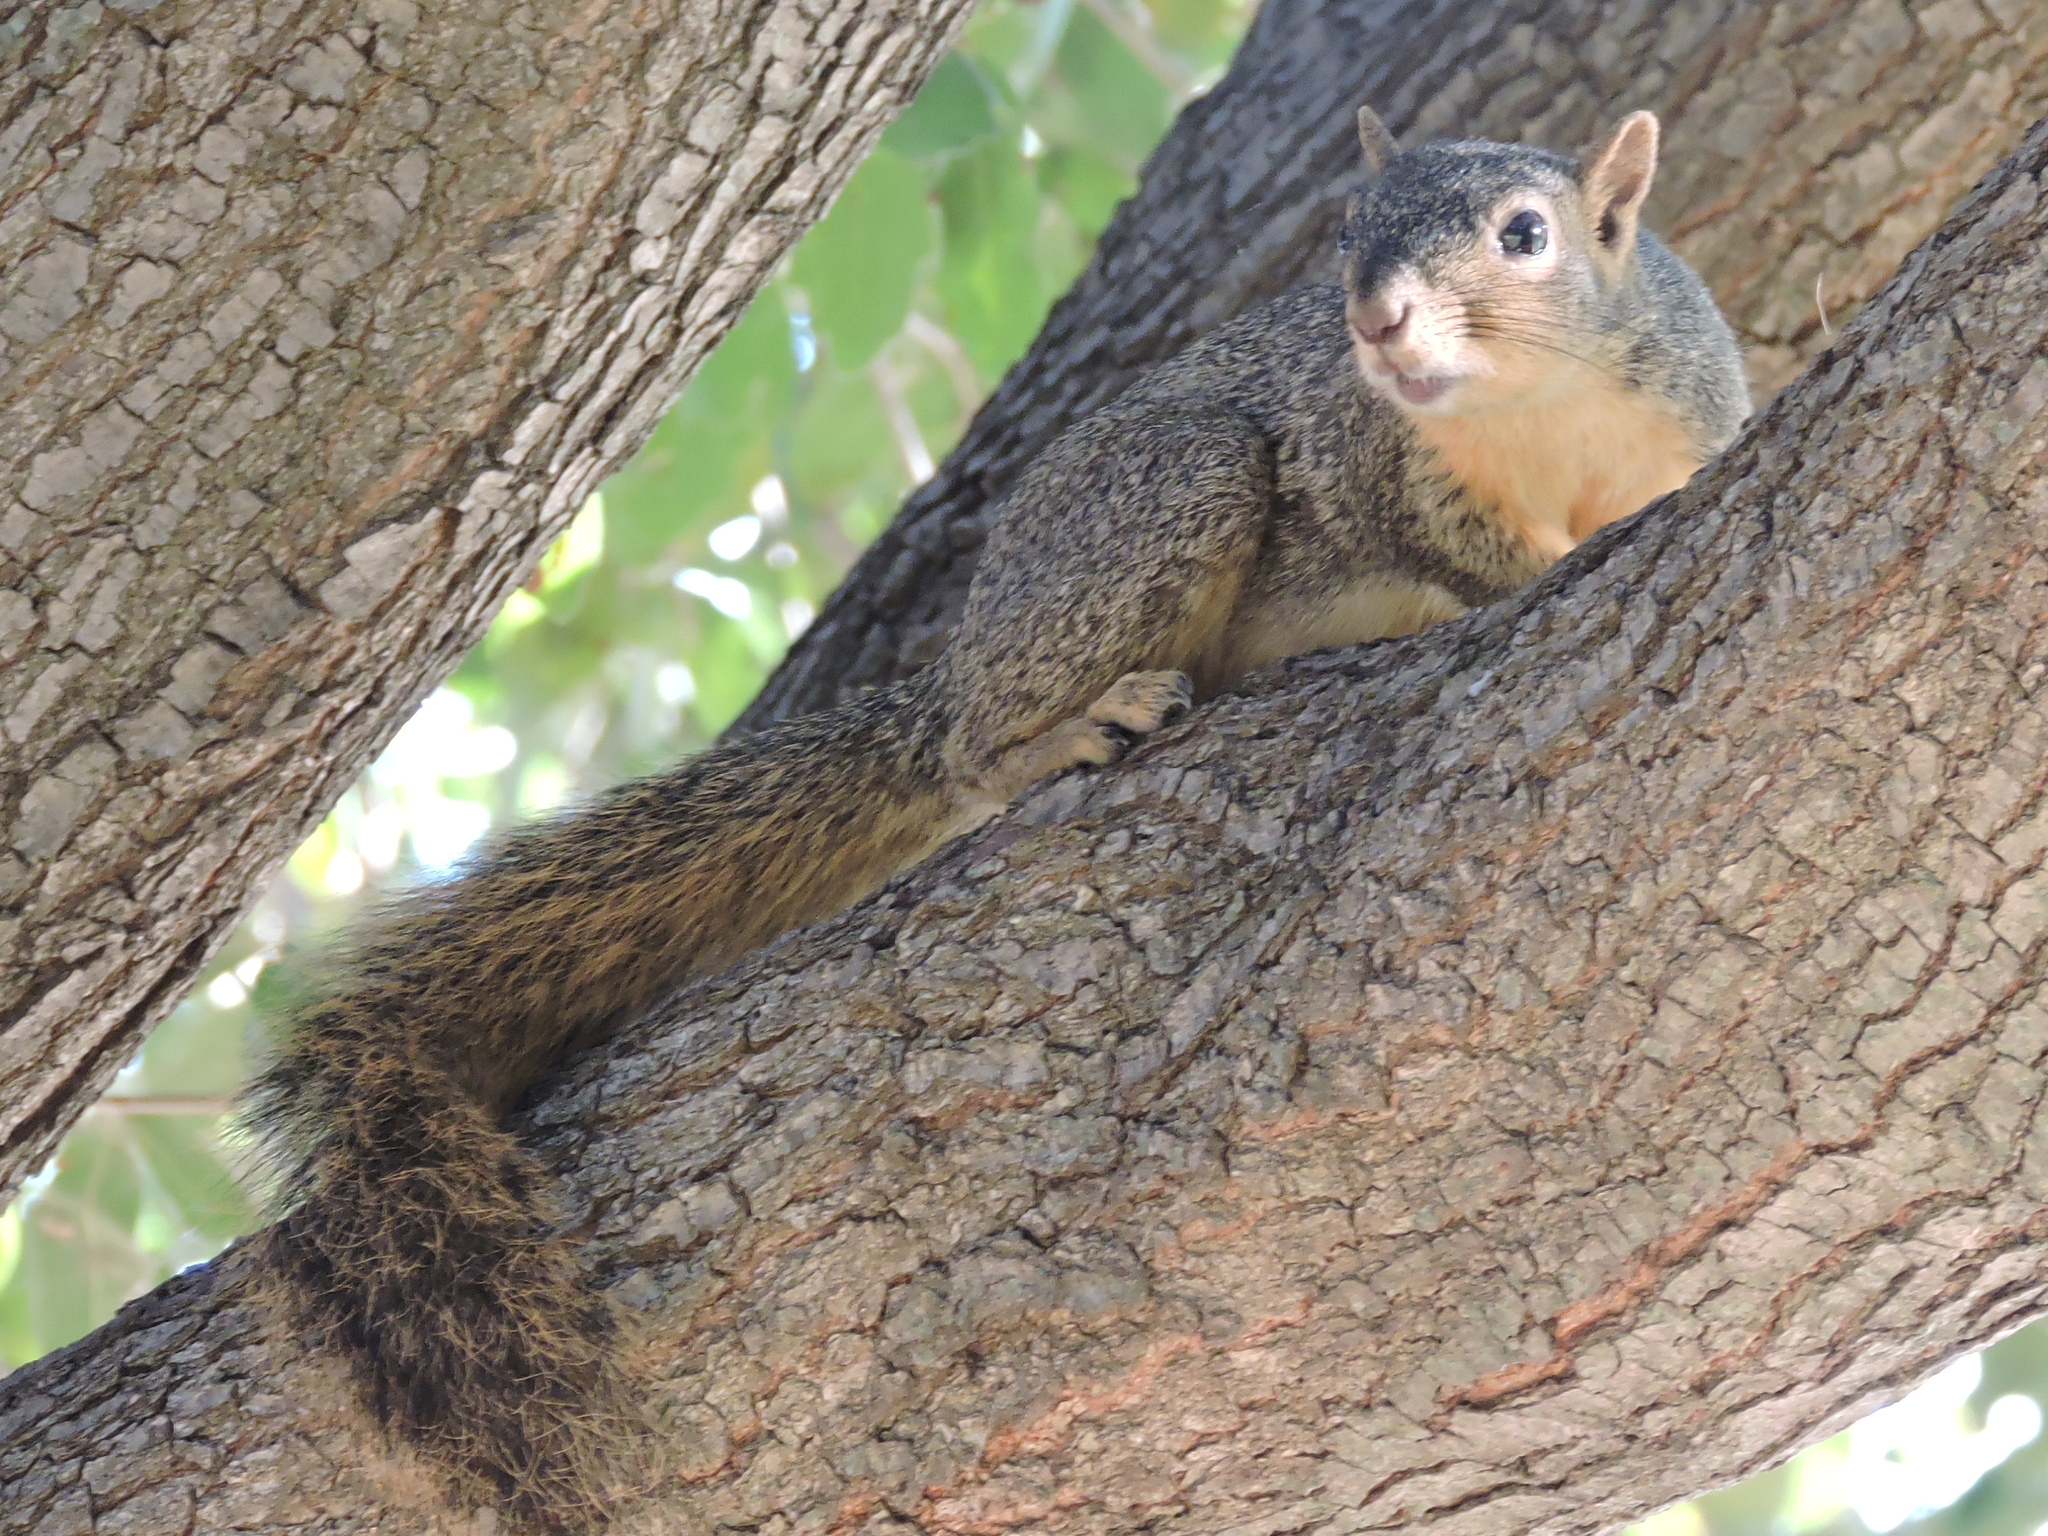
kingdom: Animalia
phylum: Chordata
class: Mammalia
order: Rodentia
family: Sciuridae
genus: Sciurus
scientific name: Sciurus niger
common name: Fox squirrel
